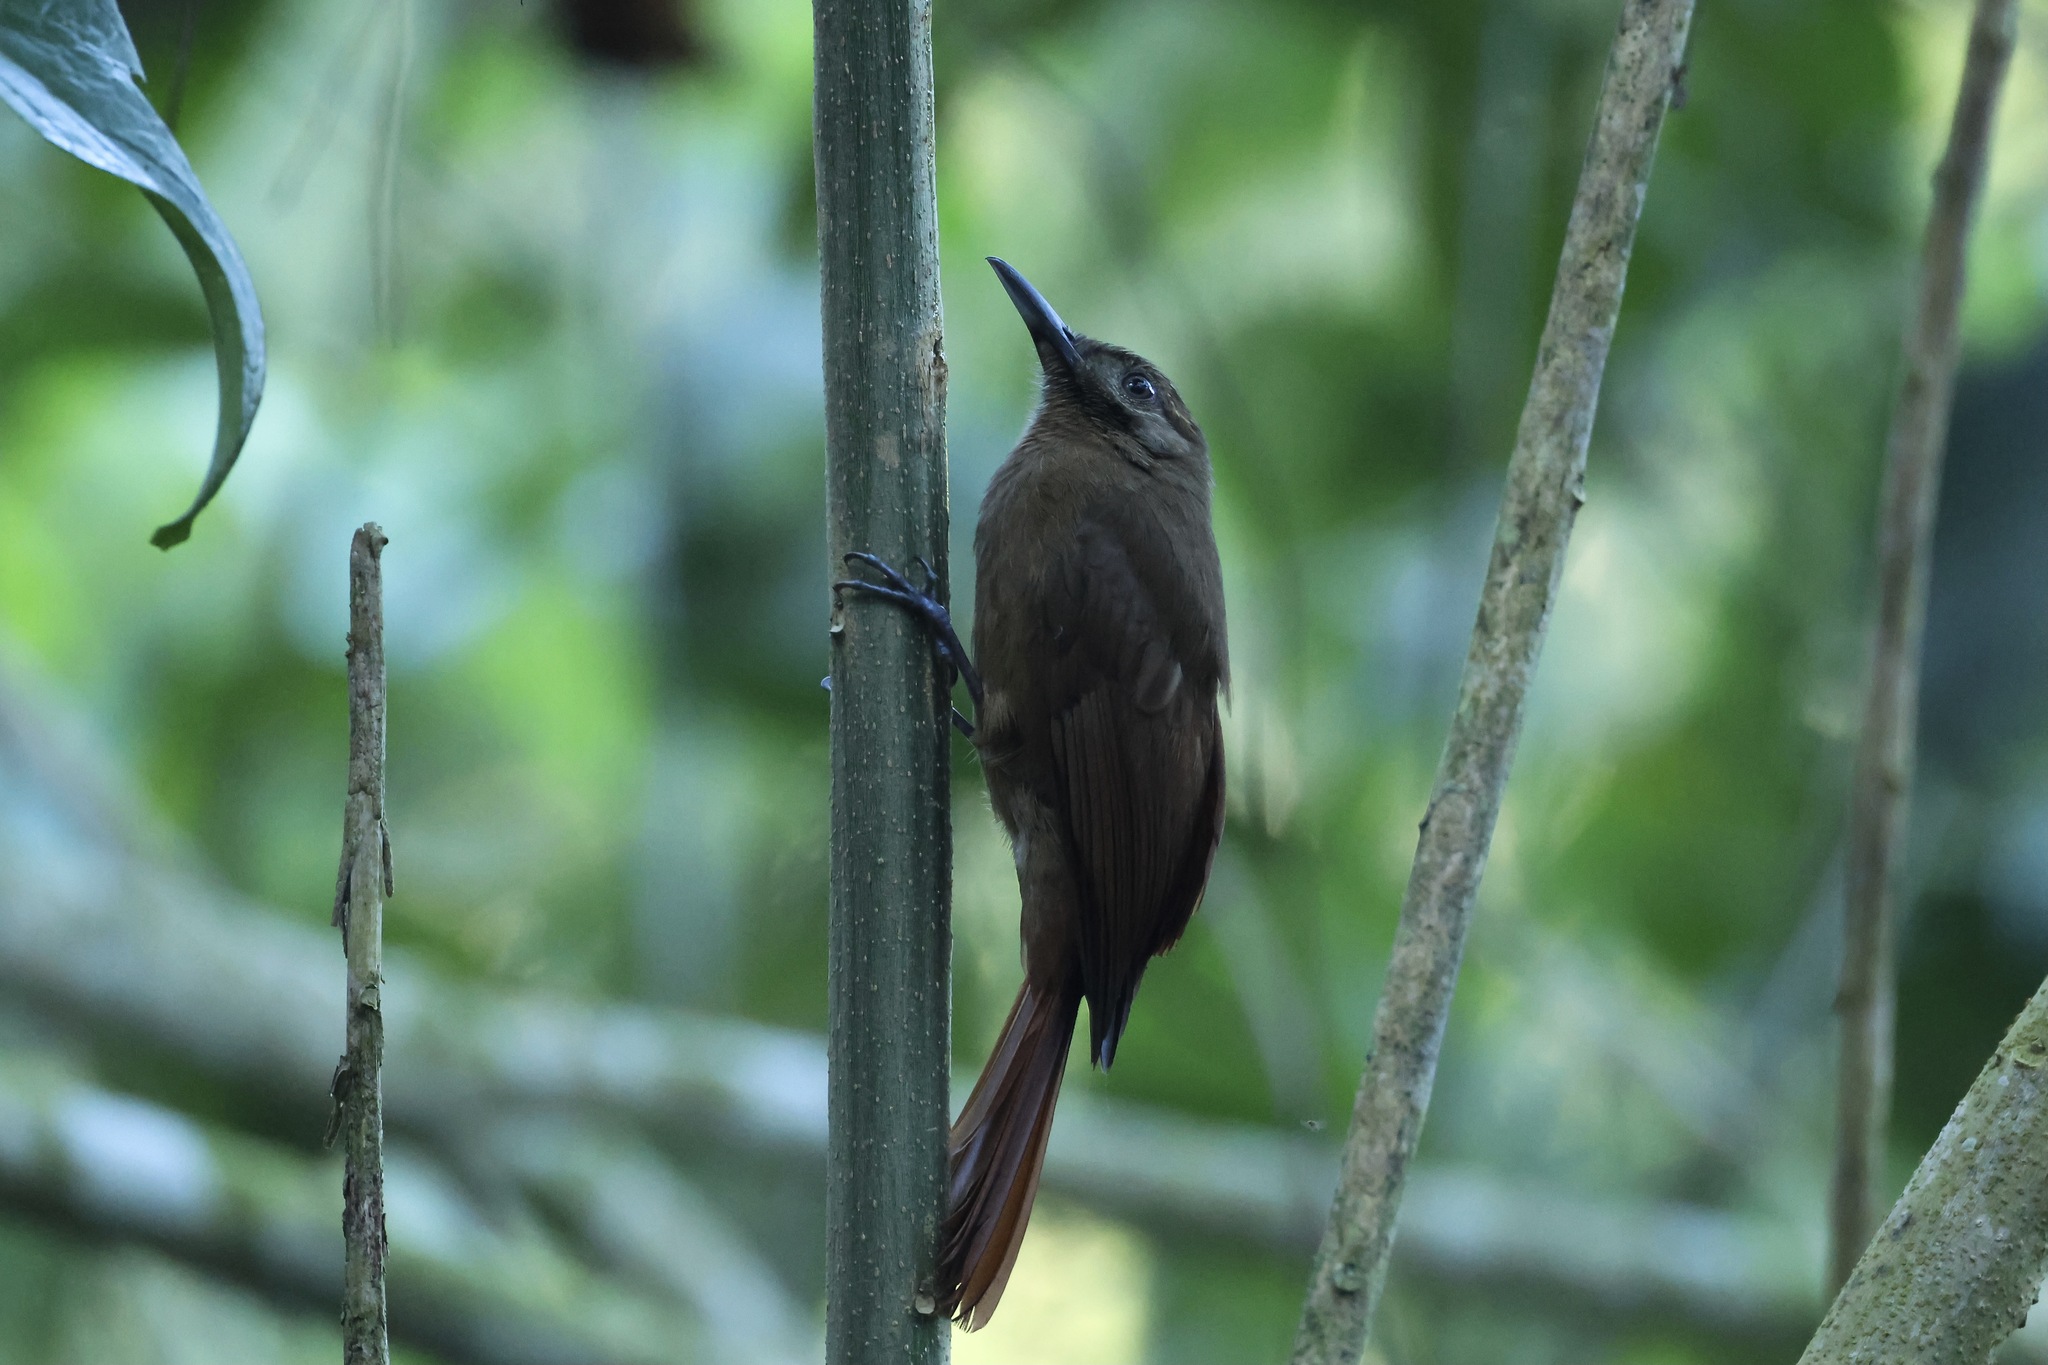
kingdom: Animalia
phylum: Chordata
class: Aves
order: Passeriformes
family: Furnariidae
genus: Dendrocincla
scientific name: Dendrocincla fuliginosa
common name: Plain-brown woodcreeper
